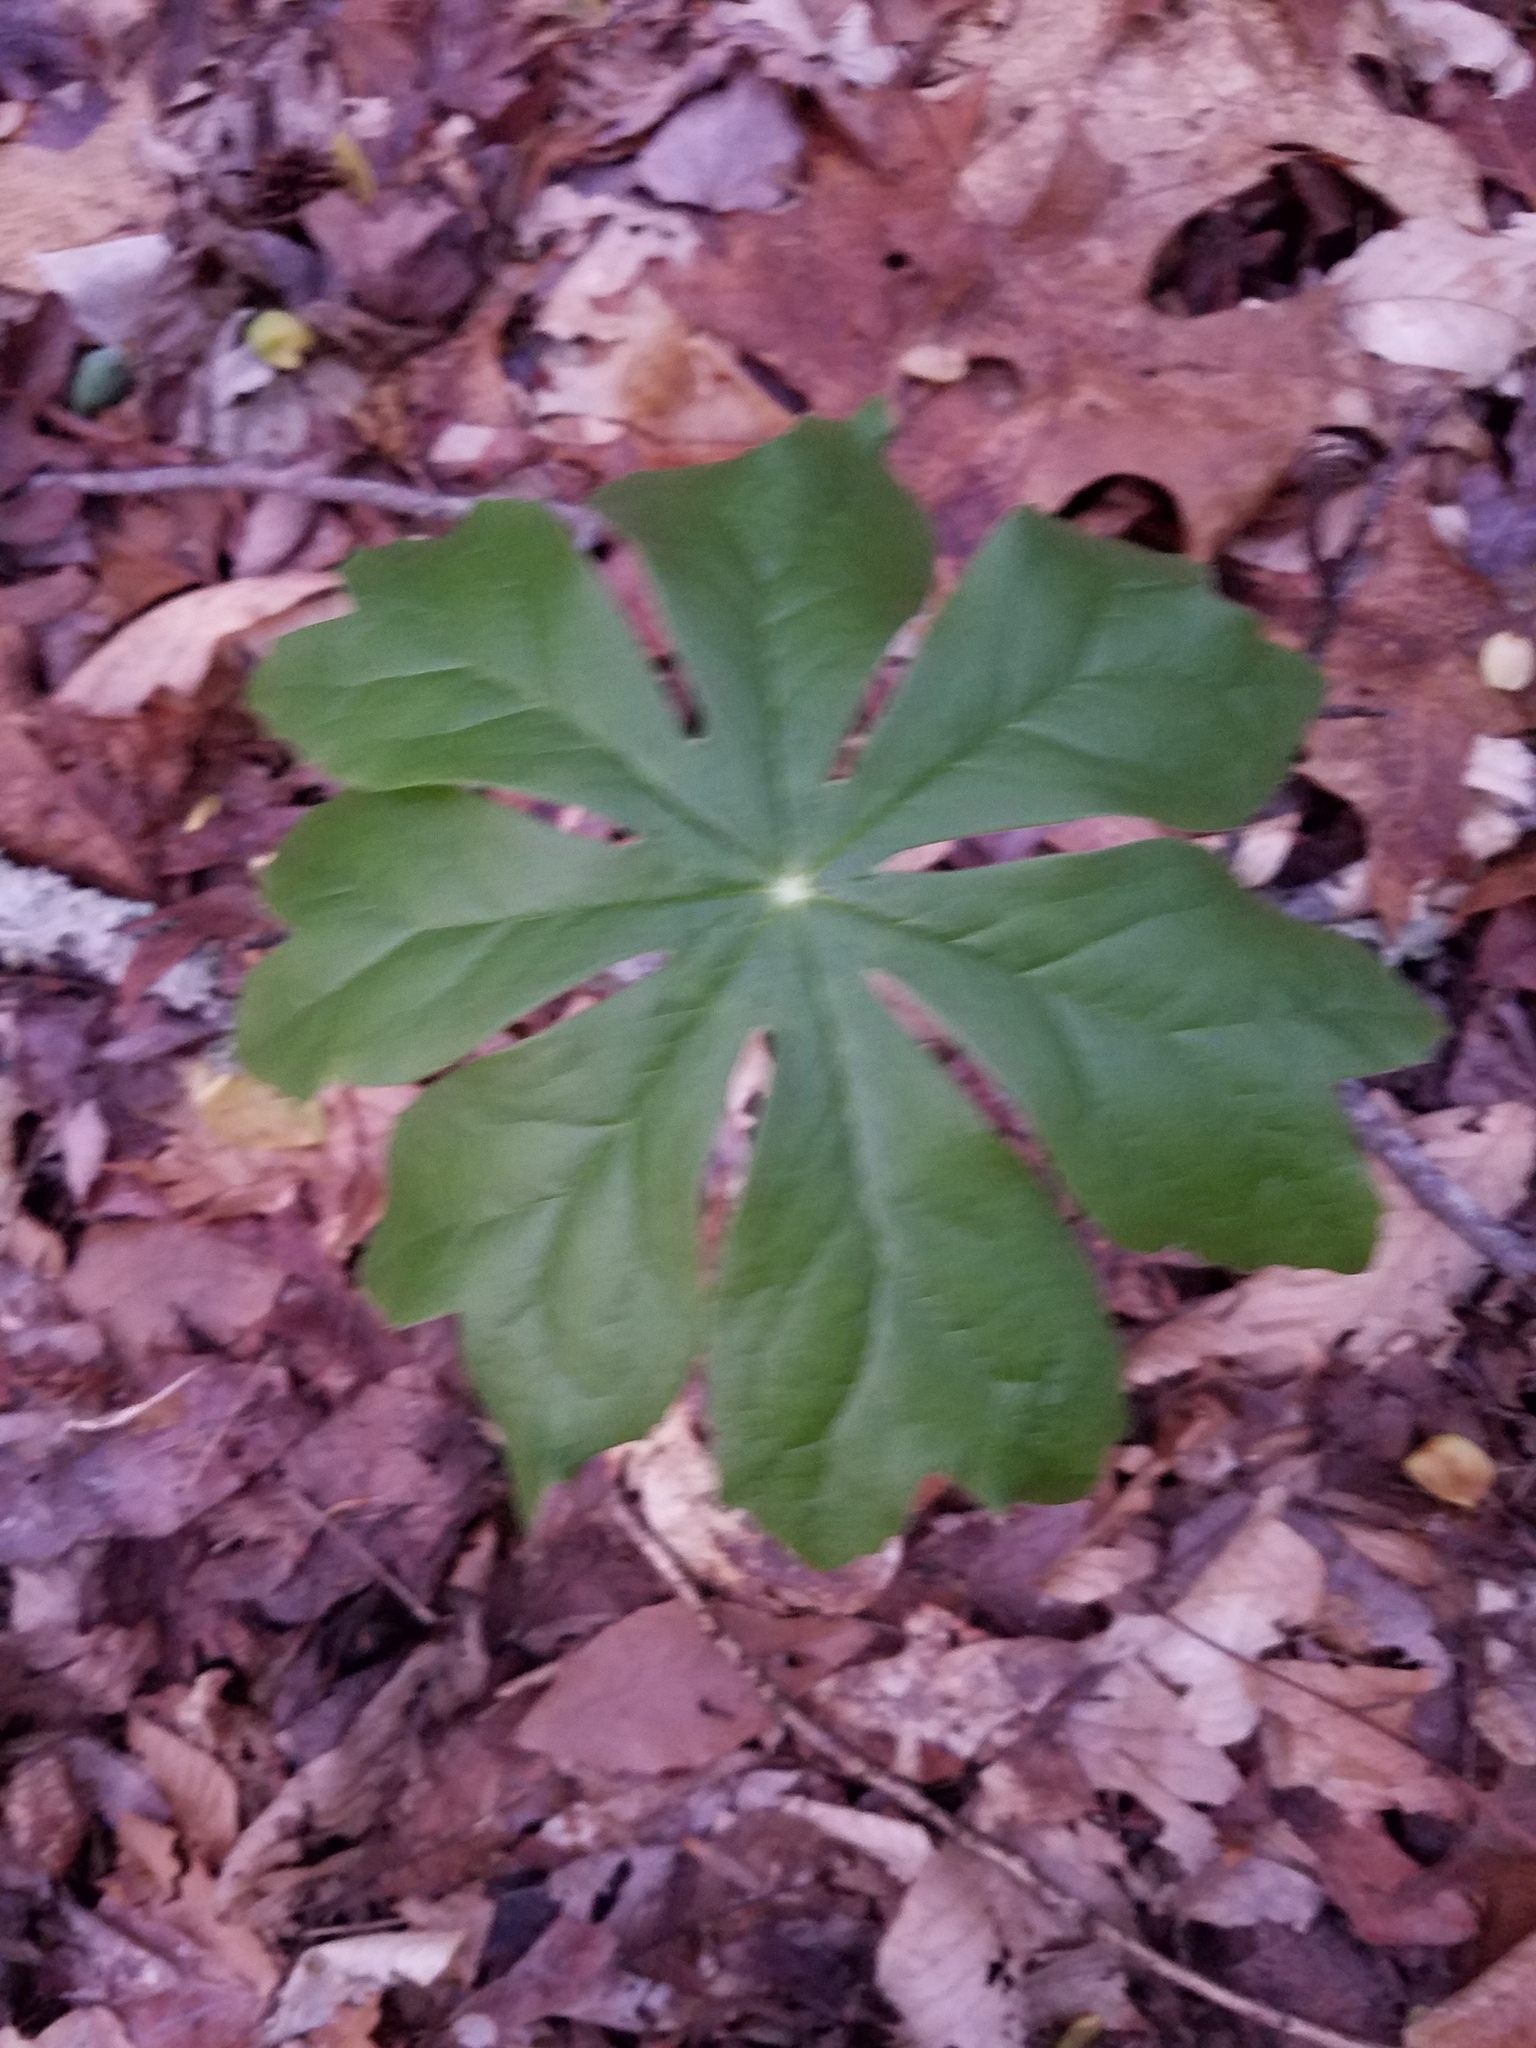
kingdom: Plantae
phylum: Tracheophyta
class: Magnoliopsida
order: Ranunculales
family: Berberidaceae
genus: Podophyllum
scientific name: Podophyllum peltatum
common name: Wild mandrake
